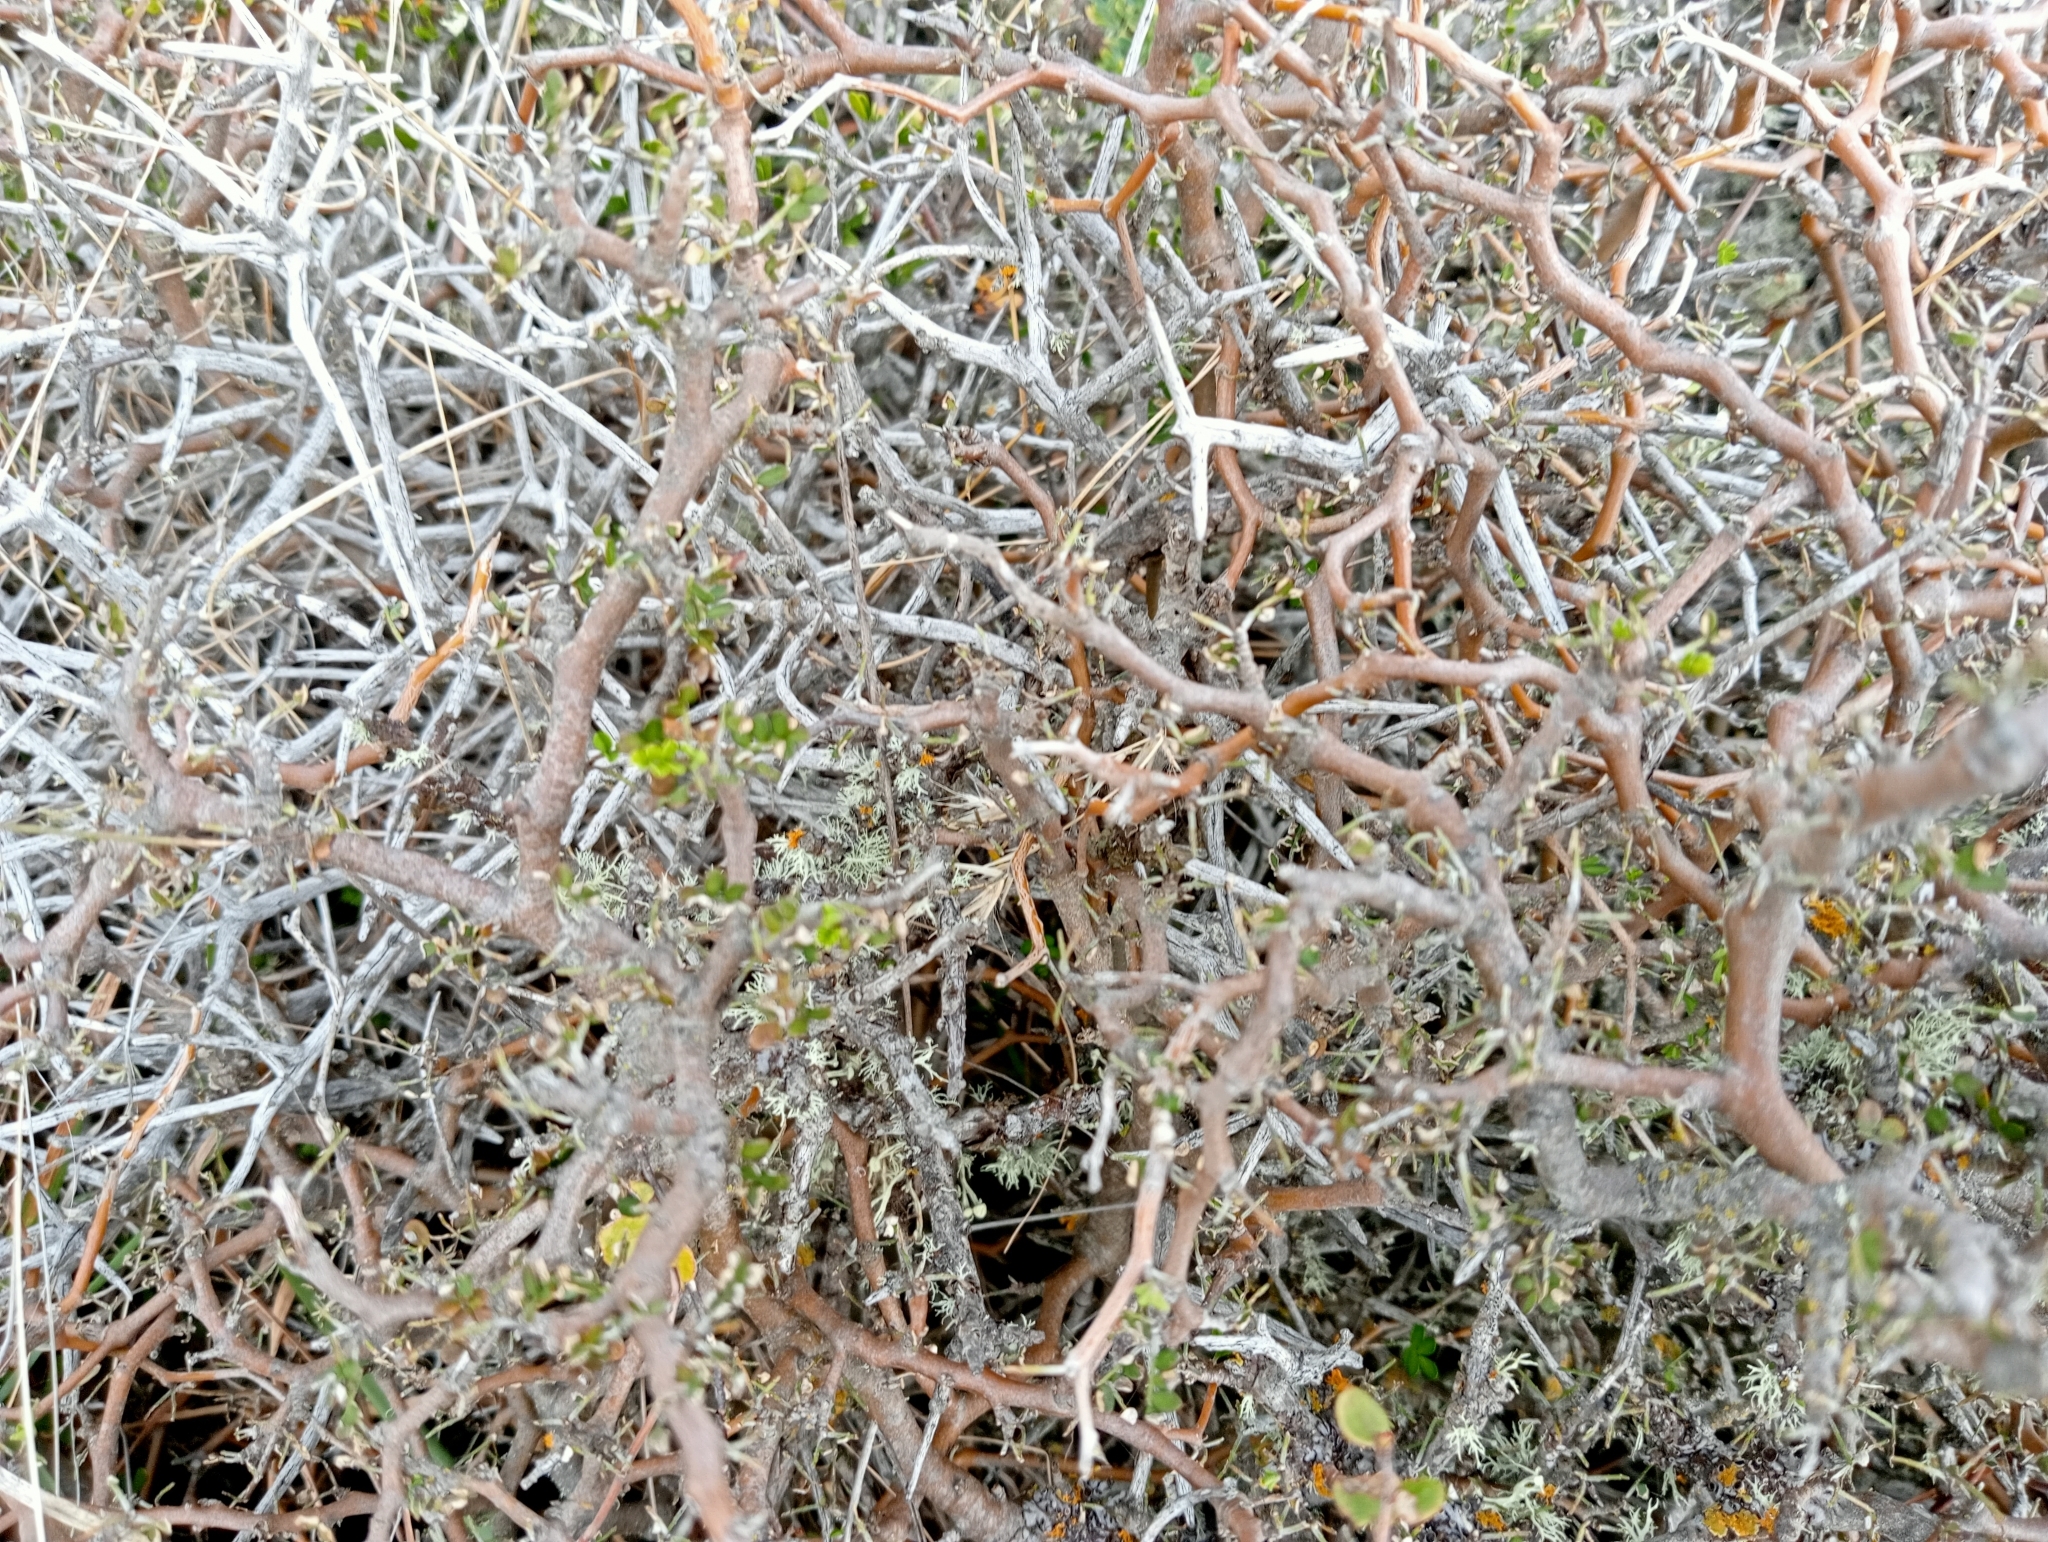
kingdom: Plantae
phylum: Tracheophyta
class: Magnoliopsida
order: Fabales
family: Fabaceae
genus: Sophora
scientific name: Sophora prostrata
